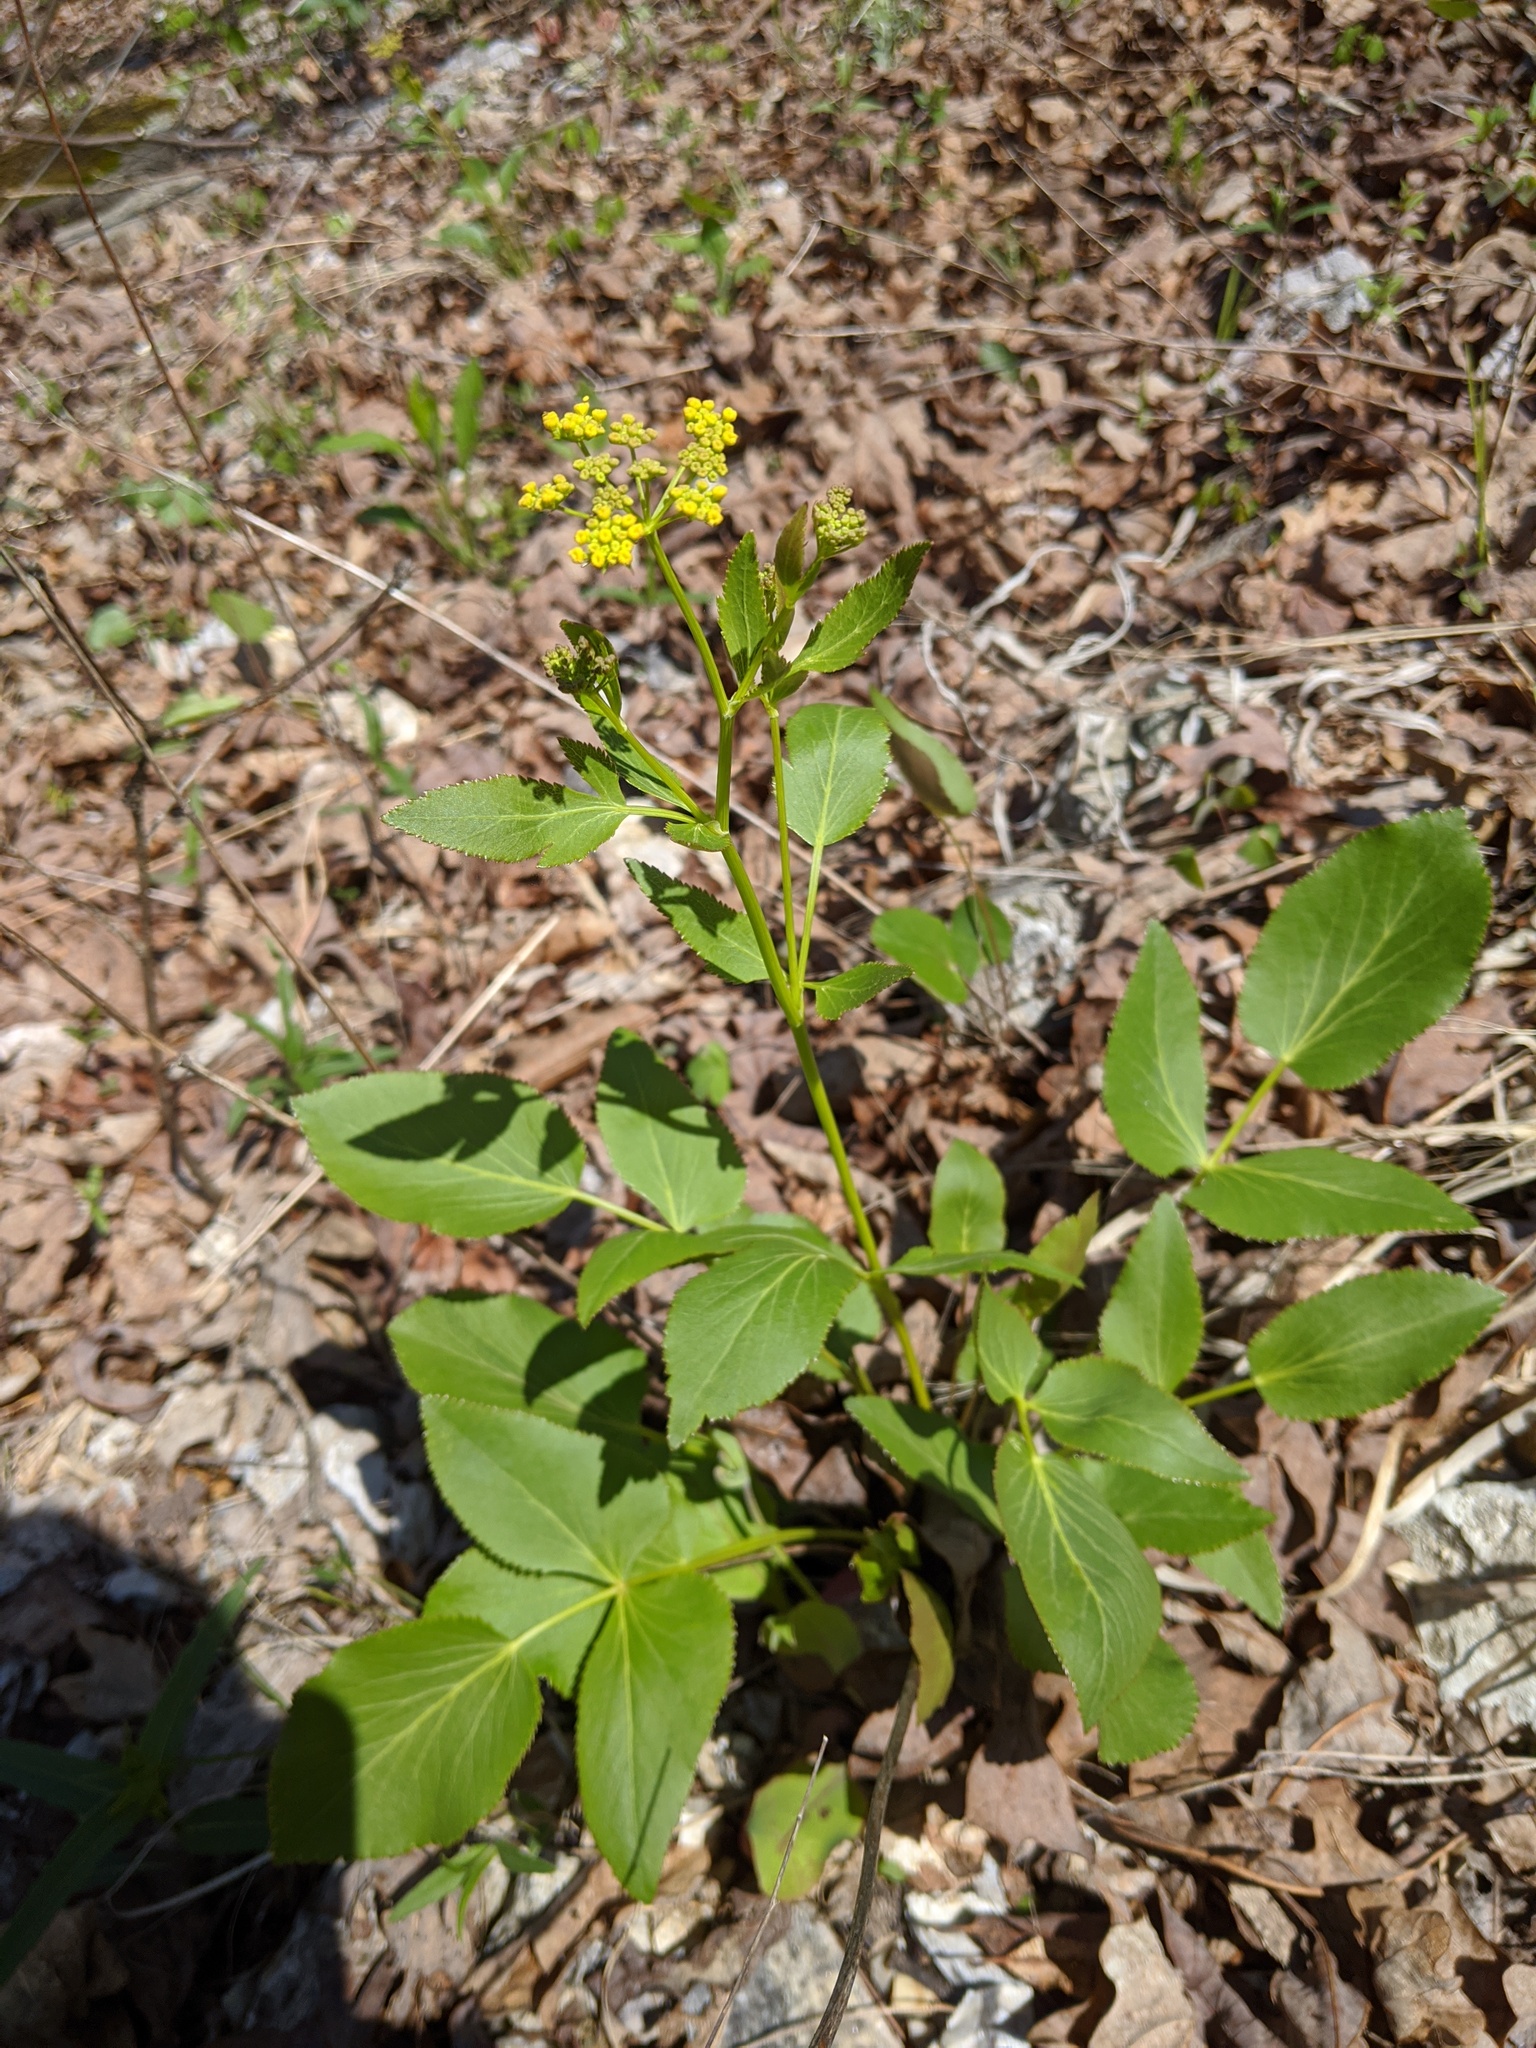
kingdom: Plantae
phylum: Tracheophyta
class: Magnoliopsida
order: Apiales
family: Apiaceae
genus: Zizia
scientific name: Zizia aurea
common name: Golden alexanders
